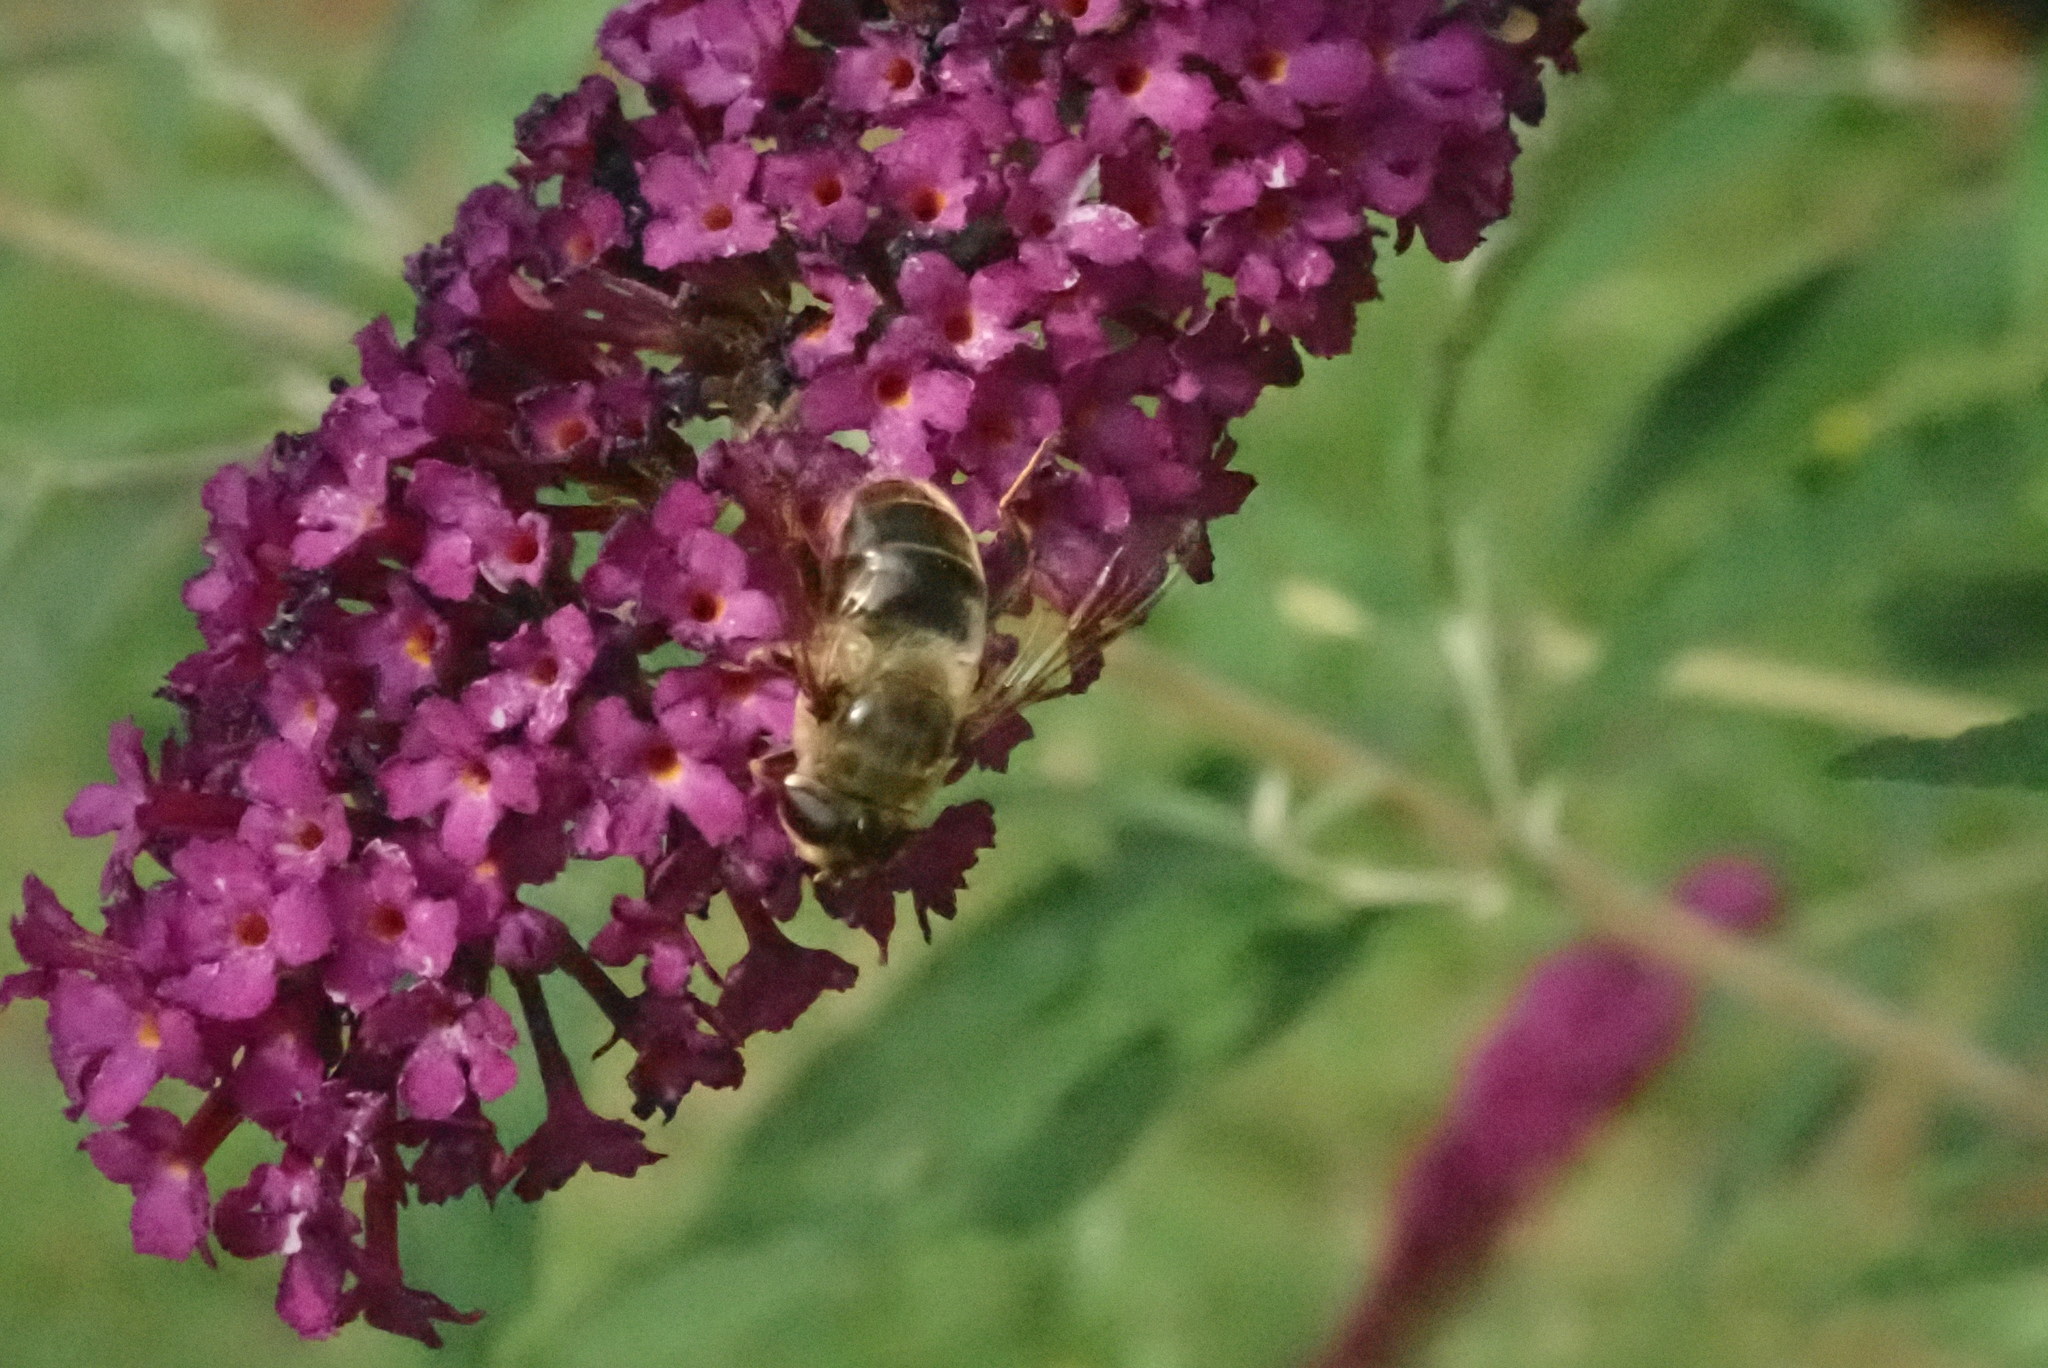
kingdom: Animalia
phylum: Arthropoda
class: Insecta
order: Diptera
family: Syrphidae
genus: Eristalis
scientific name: Eristalis tenax
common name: Drone fly
